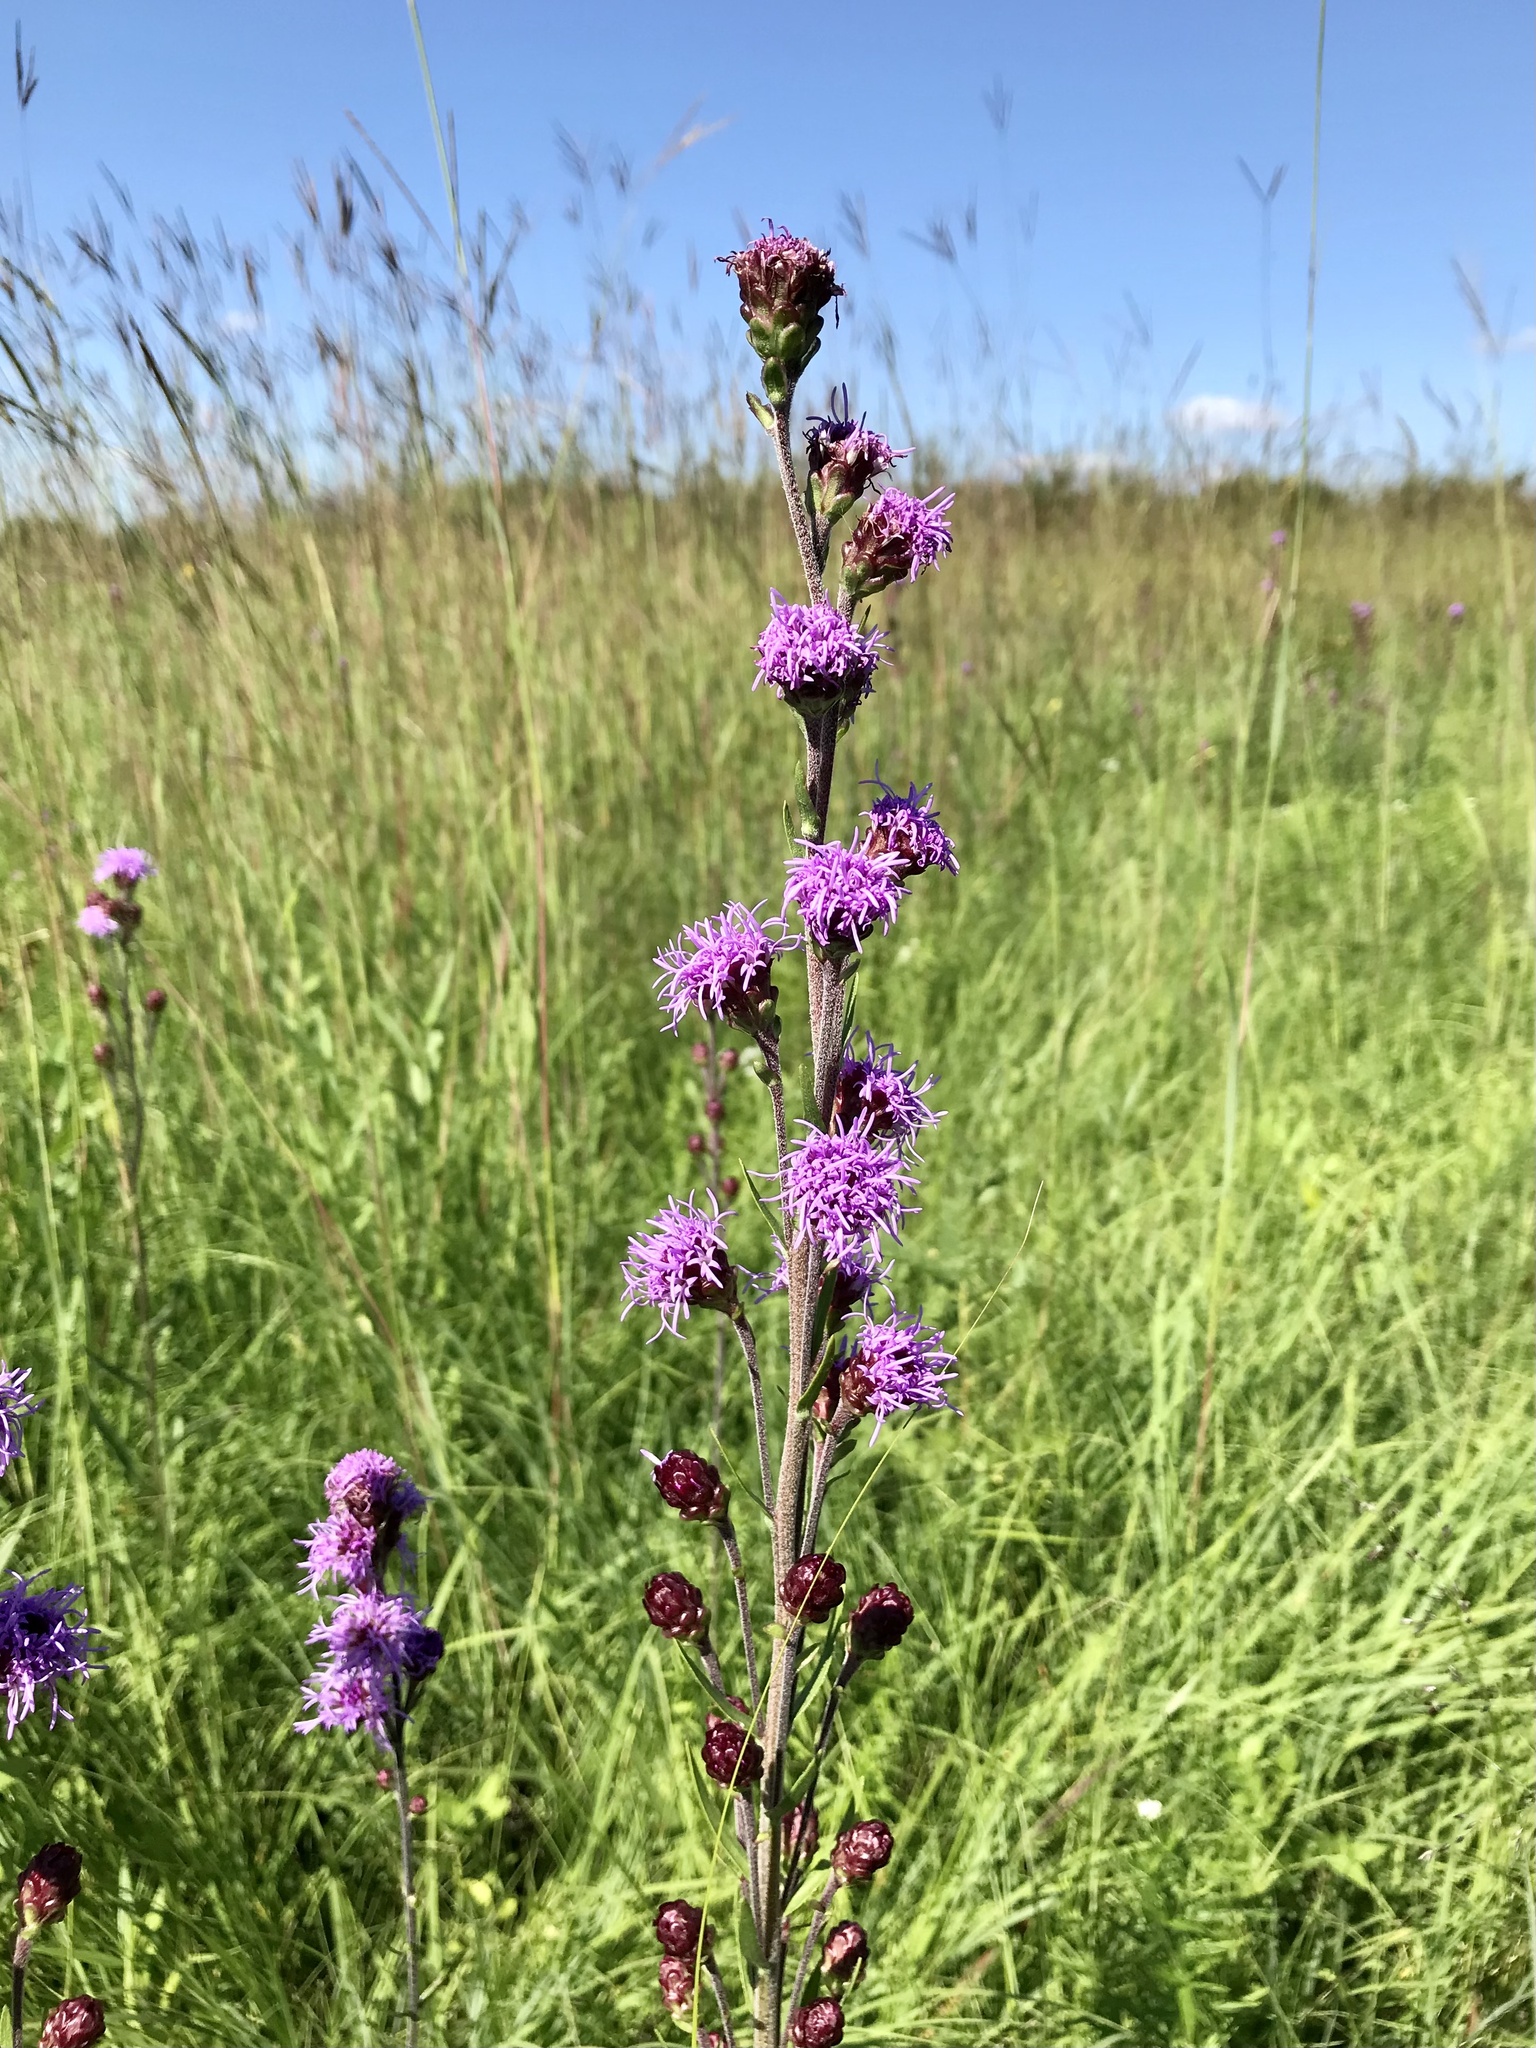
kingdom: Plantae
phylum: Tracheophyta
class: Magnoliopsida
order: Asterales
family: Asteraceae
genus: Liatris
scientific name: Liatris ligulistylis
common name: Northern plains gayfeather
